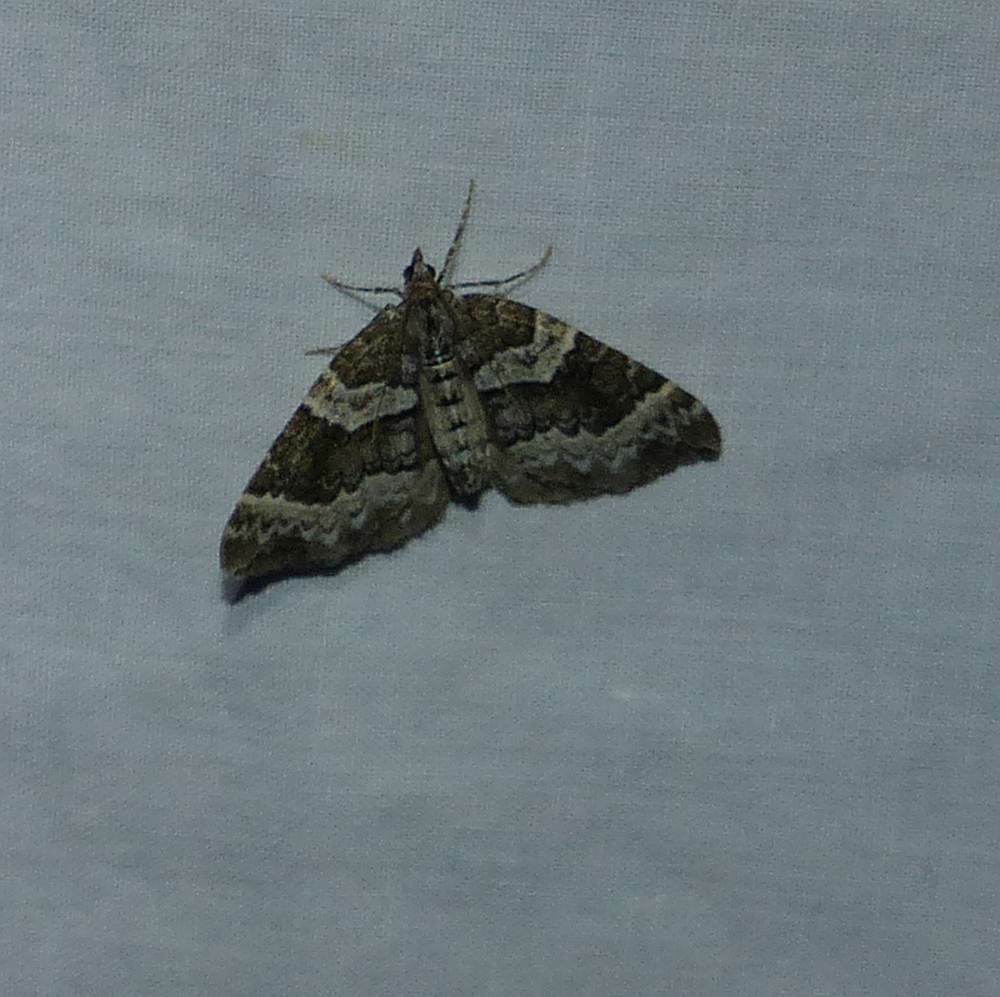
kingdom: Animalia
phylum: Arthropoda
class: Insecta
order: Lepidoptera
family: Geometridae
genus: Epirrhoe
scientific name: Epirrhoe alternata
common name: Common carpet
